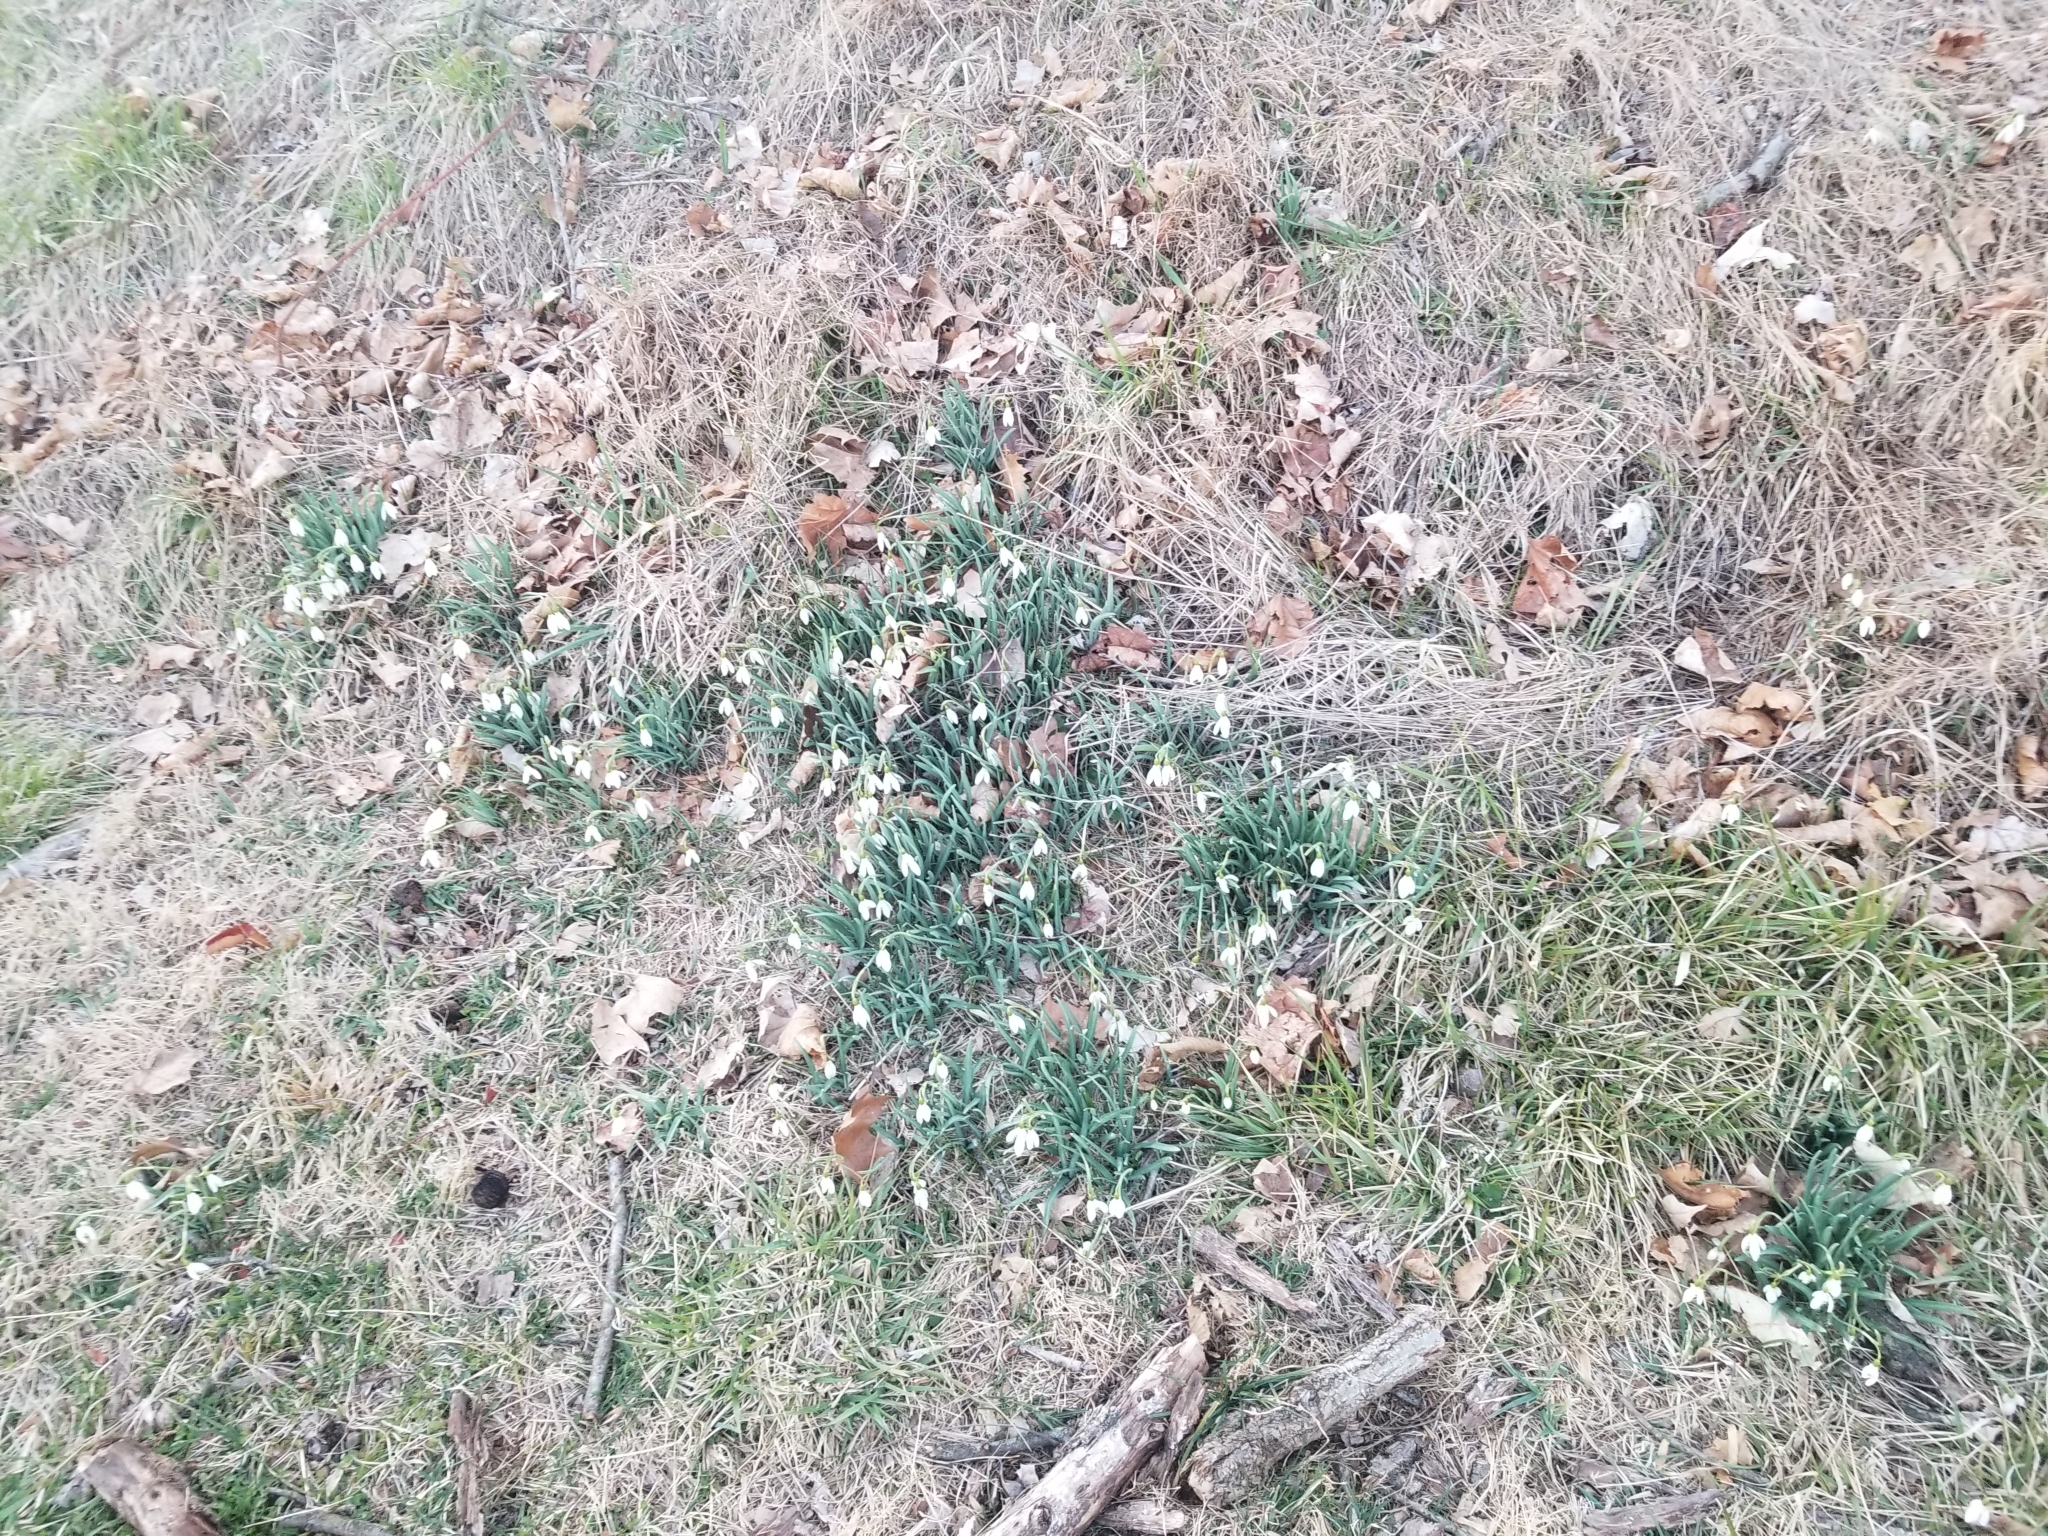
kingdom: Plantae
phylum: Tracheophyta
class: Liliopsida
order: Asparagales
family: Amaryllidaceae
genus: Galanthus
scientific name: Galanthus nivalis
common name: Snowdrop
